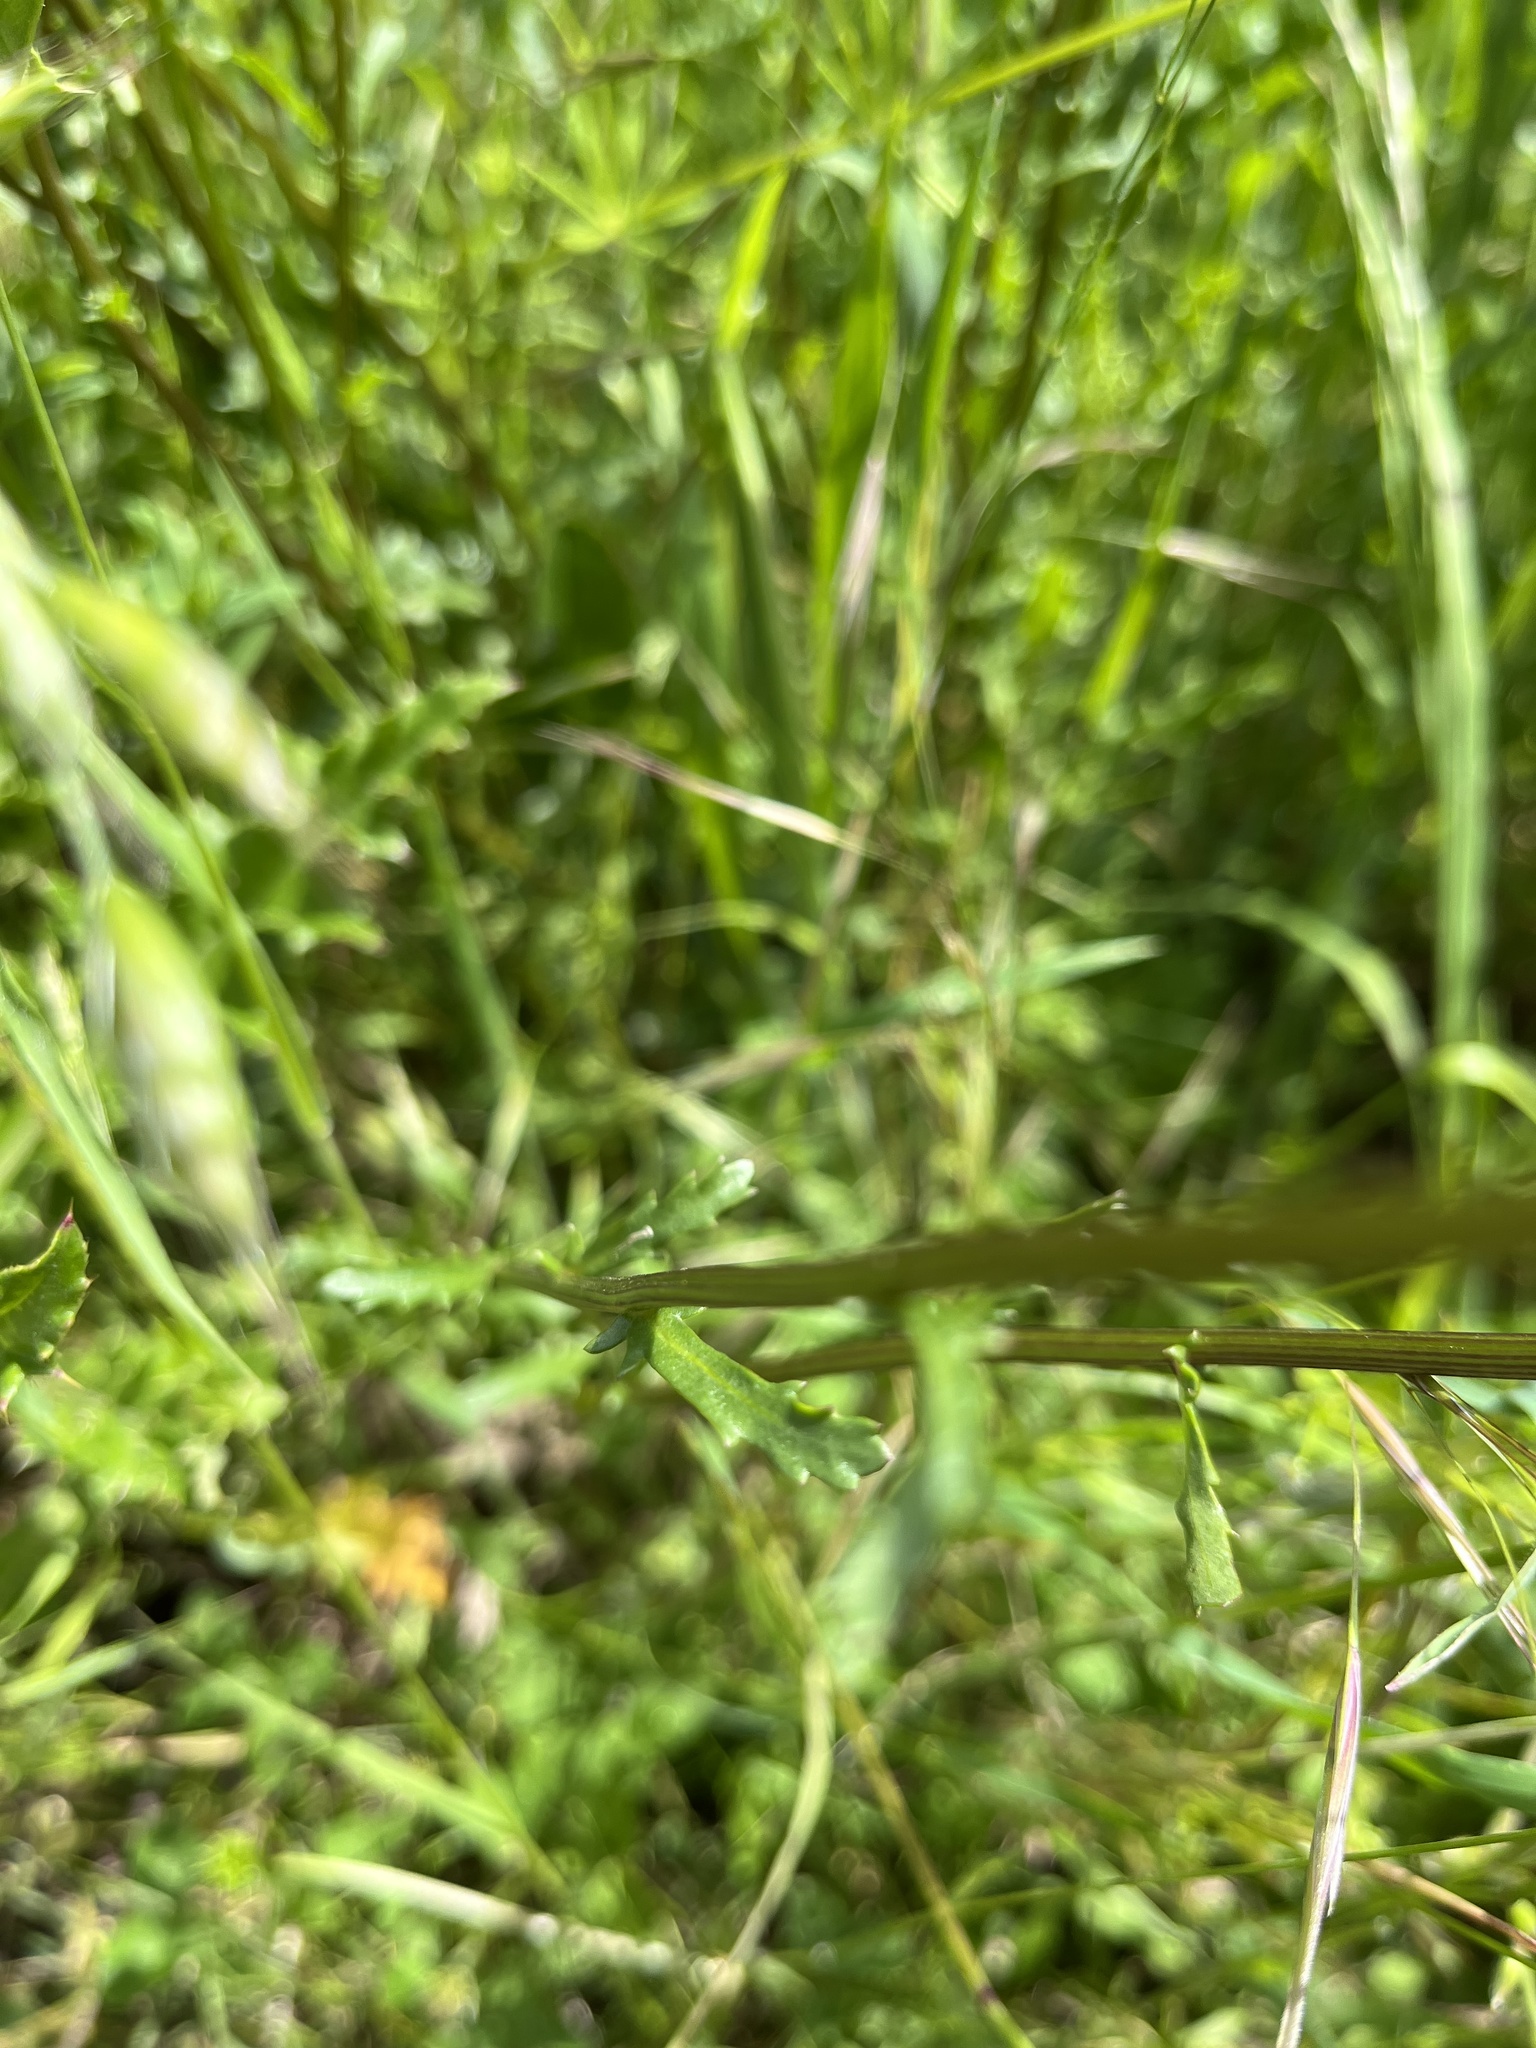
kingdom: Plantae
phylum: Tracheophyta
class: Magnoliopsida
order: Asterales
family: Asteraceae
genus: Leucanthemum
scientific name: Leucanthemum vulgare
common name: Oxeye daisy
